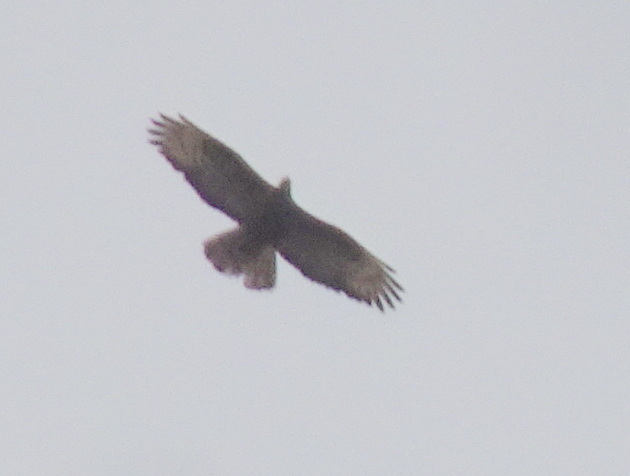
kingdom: Animalia
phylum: Chordata
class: Aves
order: Accipitriformes
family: Accipitridae
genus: Pernis
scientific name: Pernis apivorus
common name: European honey buzzard
